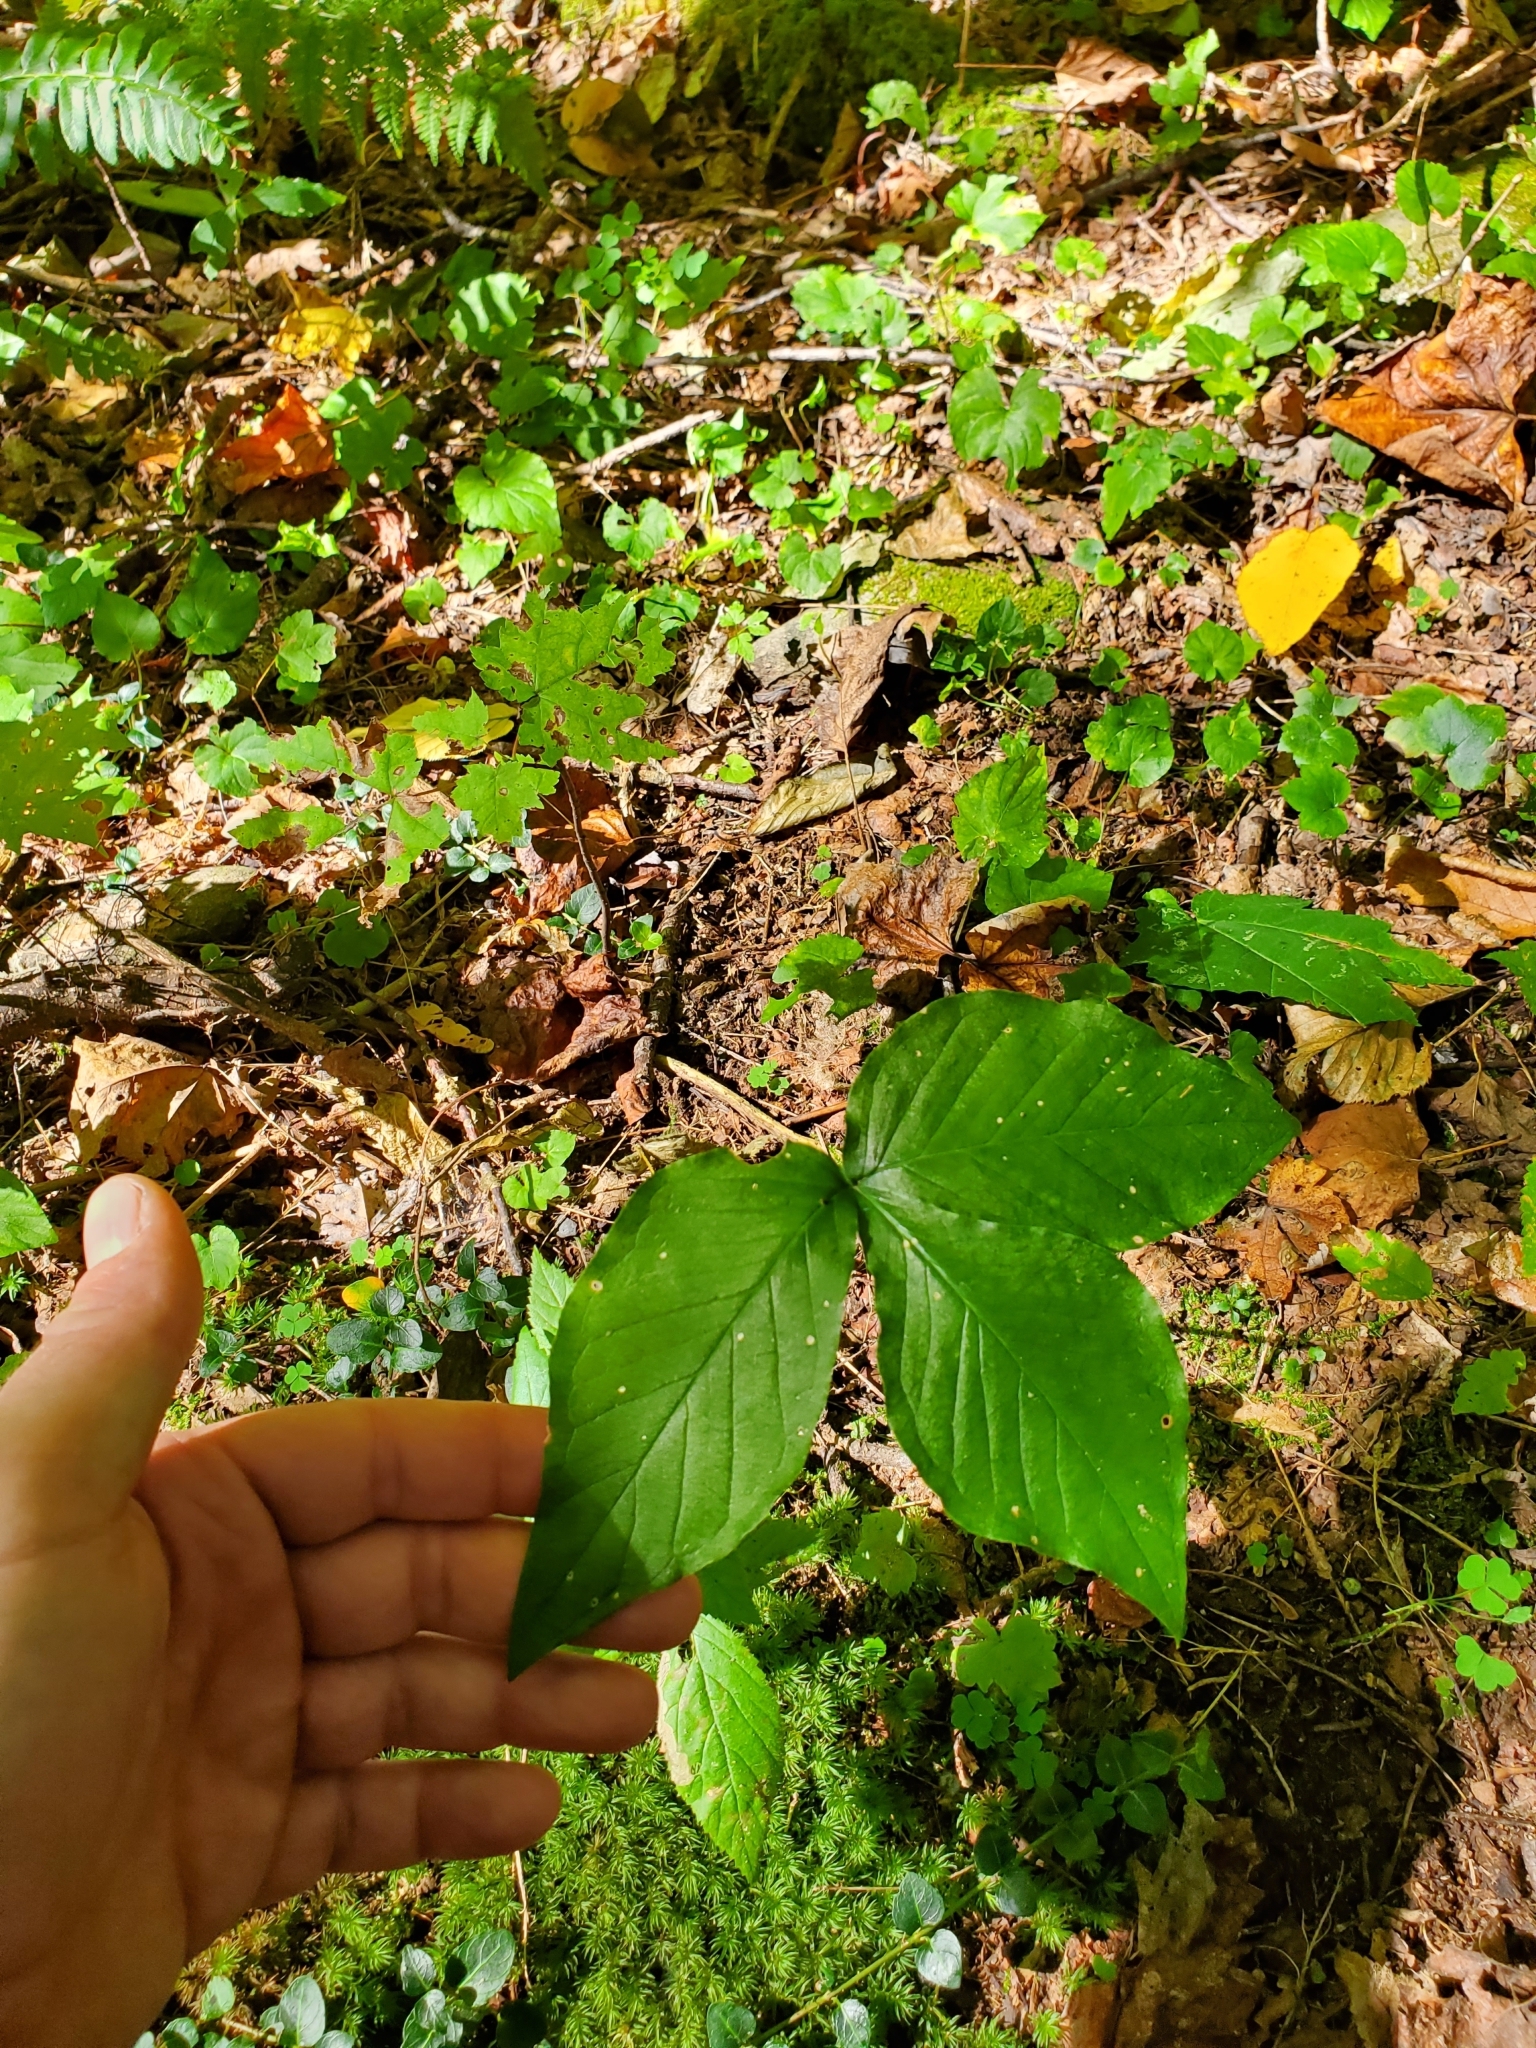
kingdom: Plantae
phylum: Tracheophyta
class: Liliopsida
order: Alismatales
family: Araceae
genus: Arisaema
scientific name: Arisaema triphyllum
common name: Jack-in-the-pulpit
